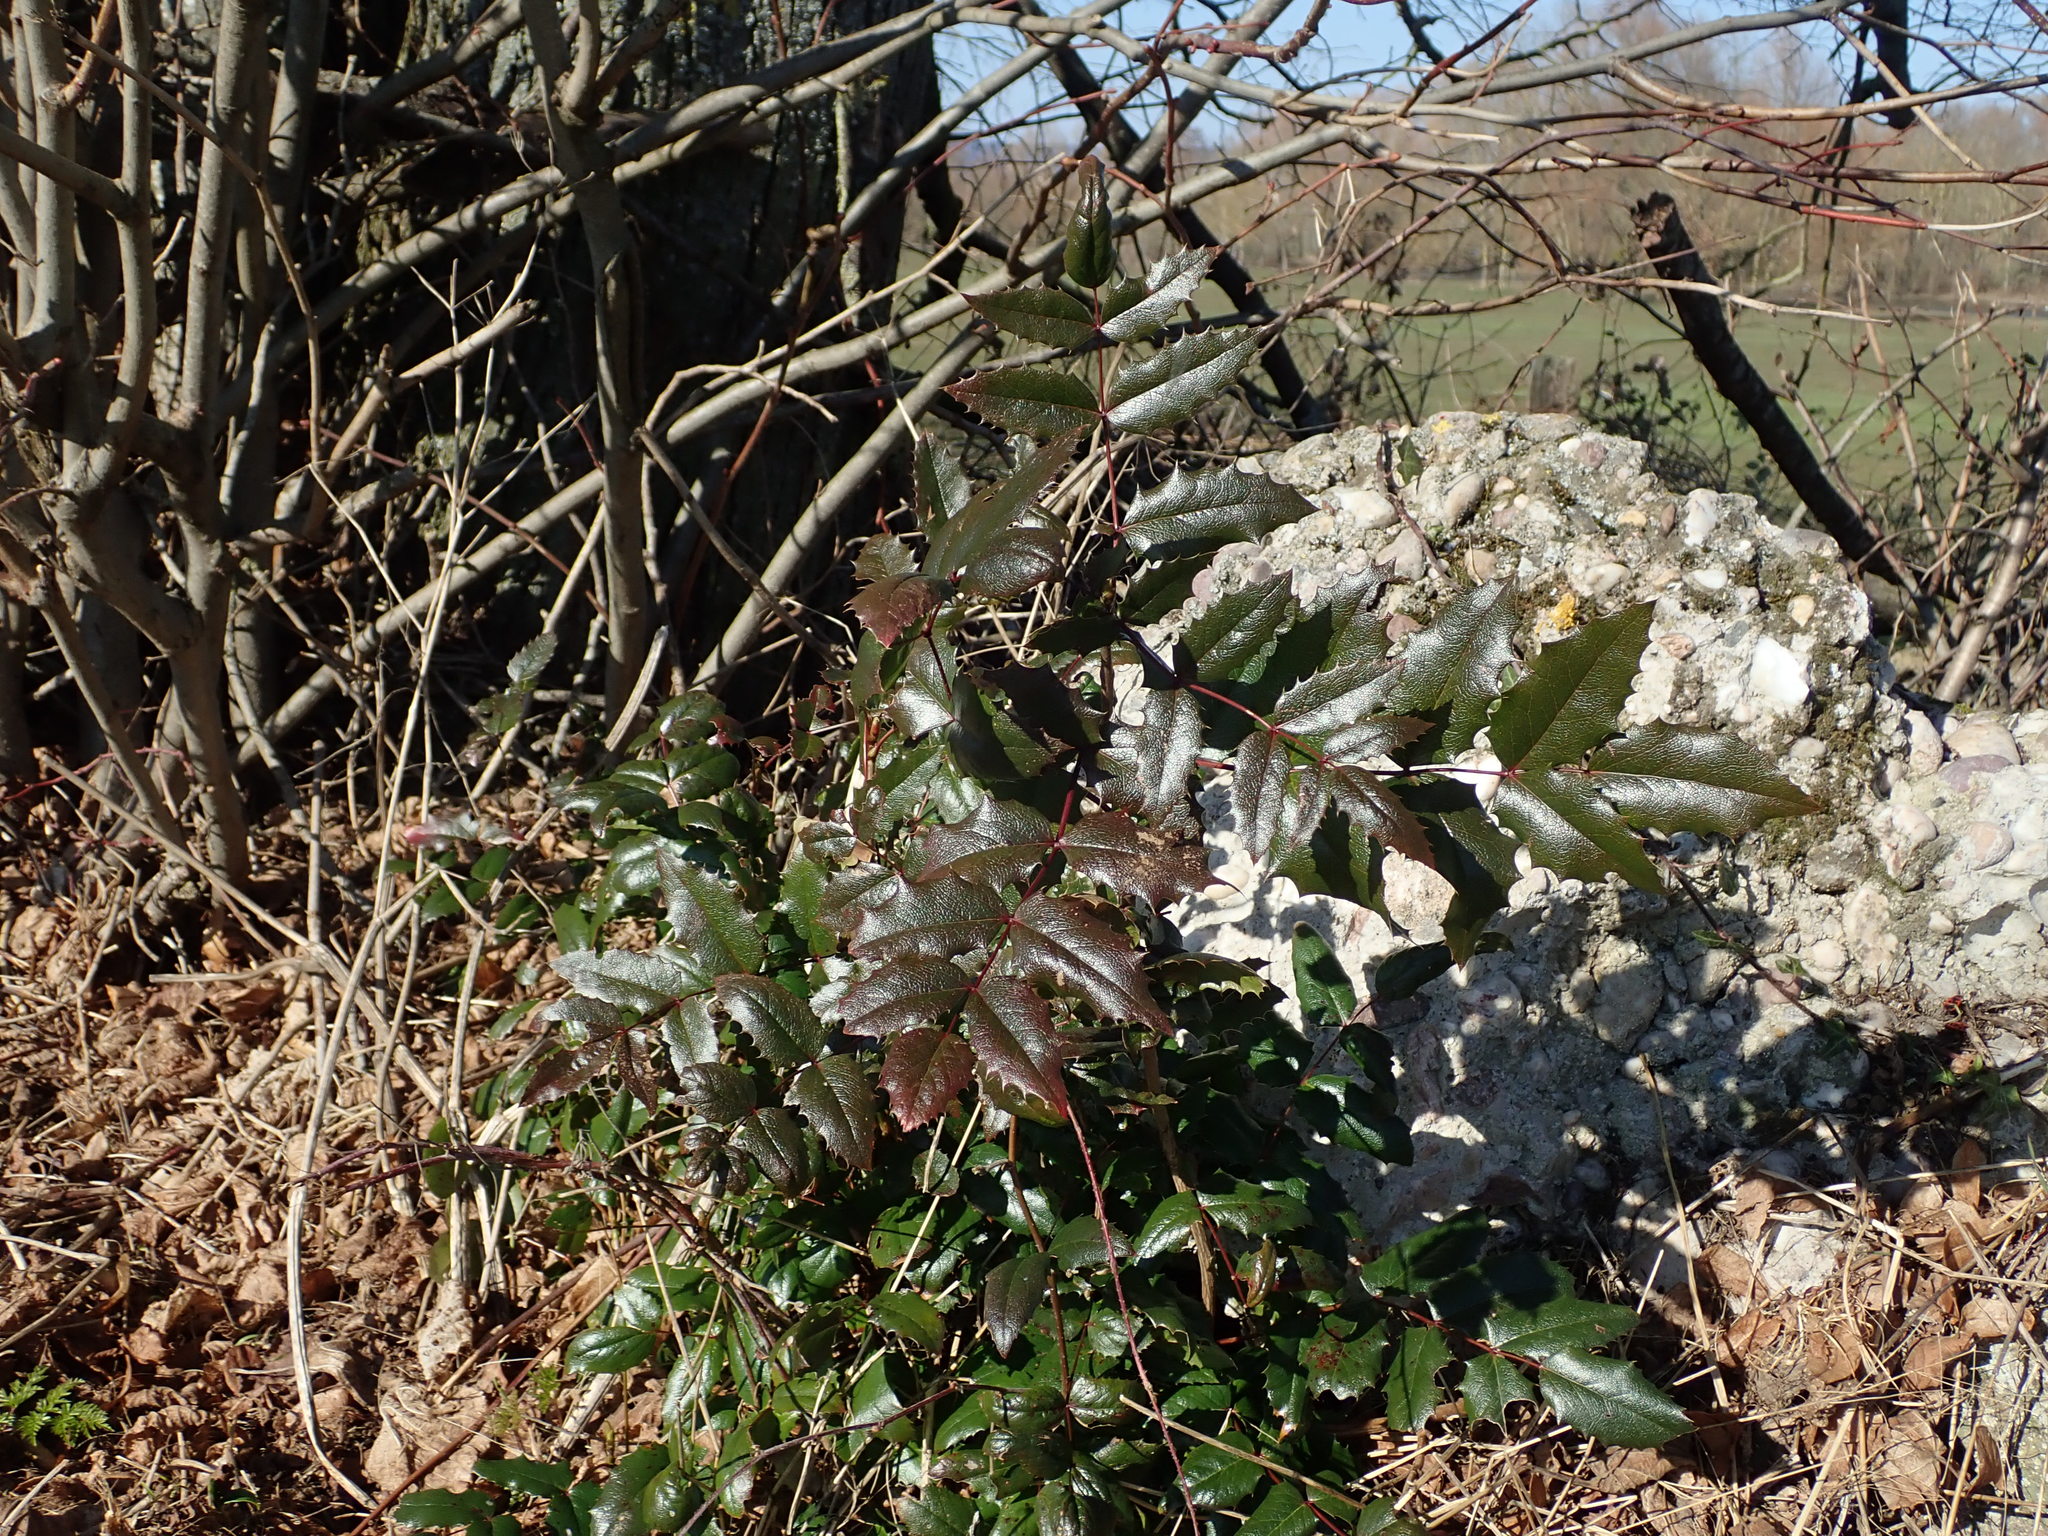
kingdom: Plantae
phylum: Tracheophyta
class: Magnoliopsida
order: Ranunculales
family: Berberidaceae
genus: Mahonia
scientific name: Mahonia aquifolium
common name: Oregon-grape
